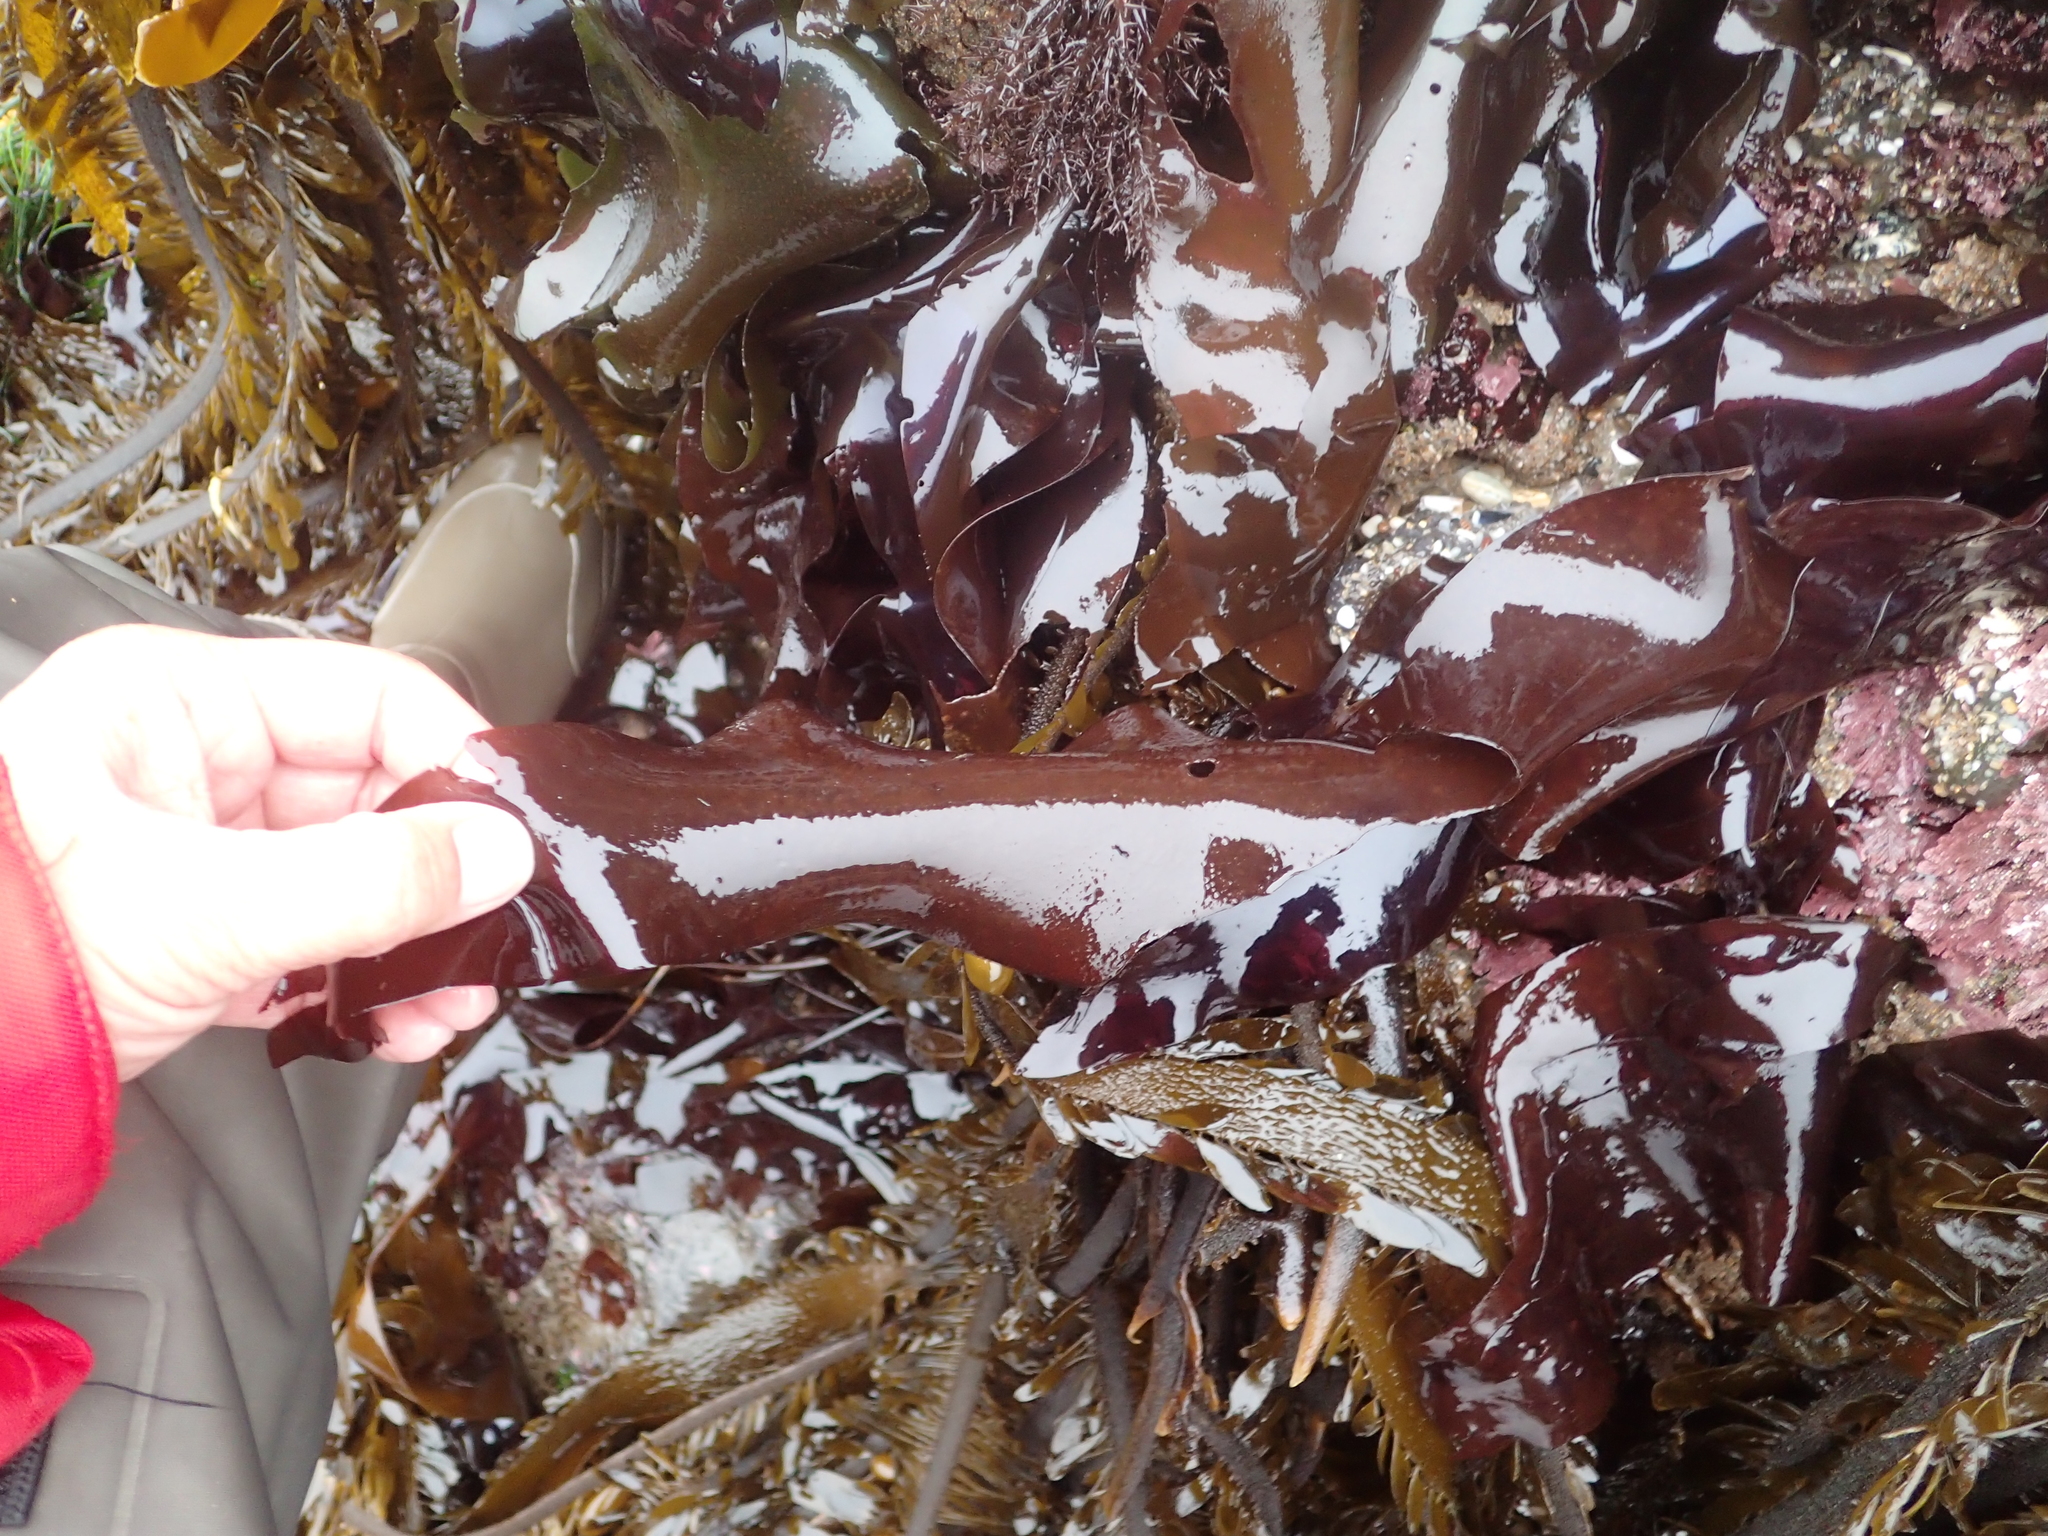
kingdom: Plantae
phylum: Rhodophyta
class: Florideophyceae
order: Gigartinales
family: Gigartinaceae
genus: Mazzaella
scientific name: Mazzaella splendens
